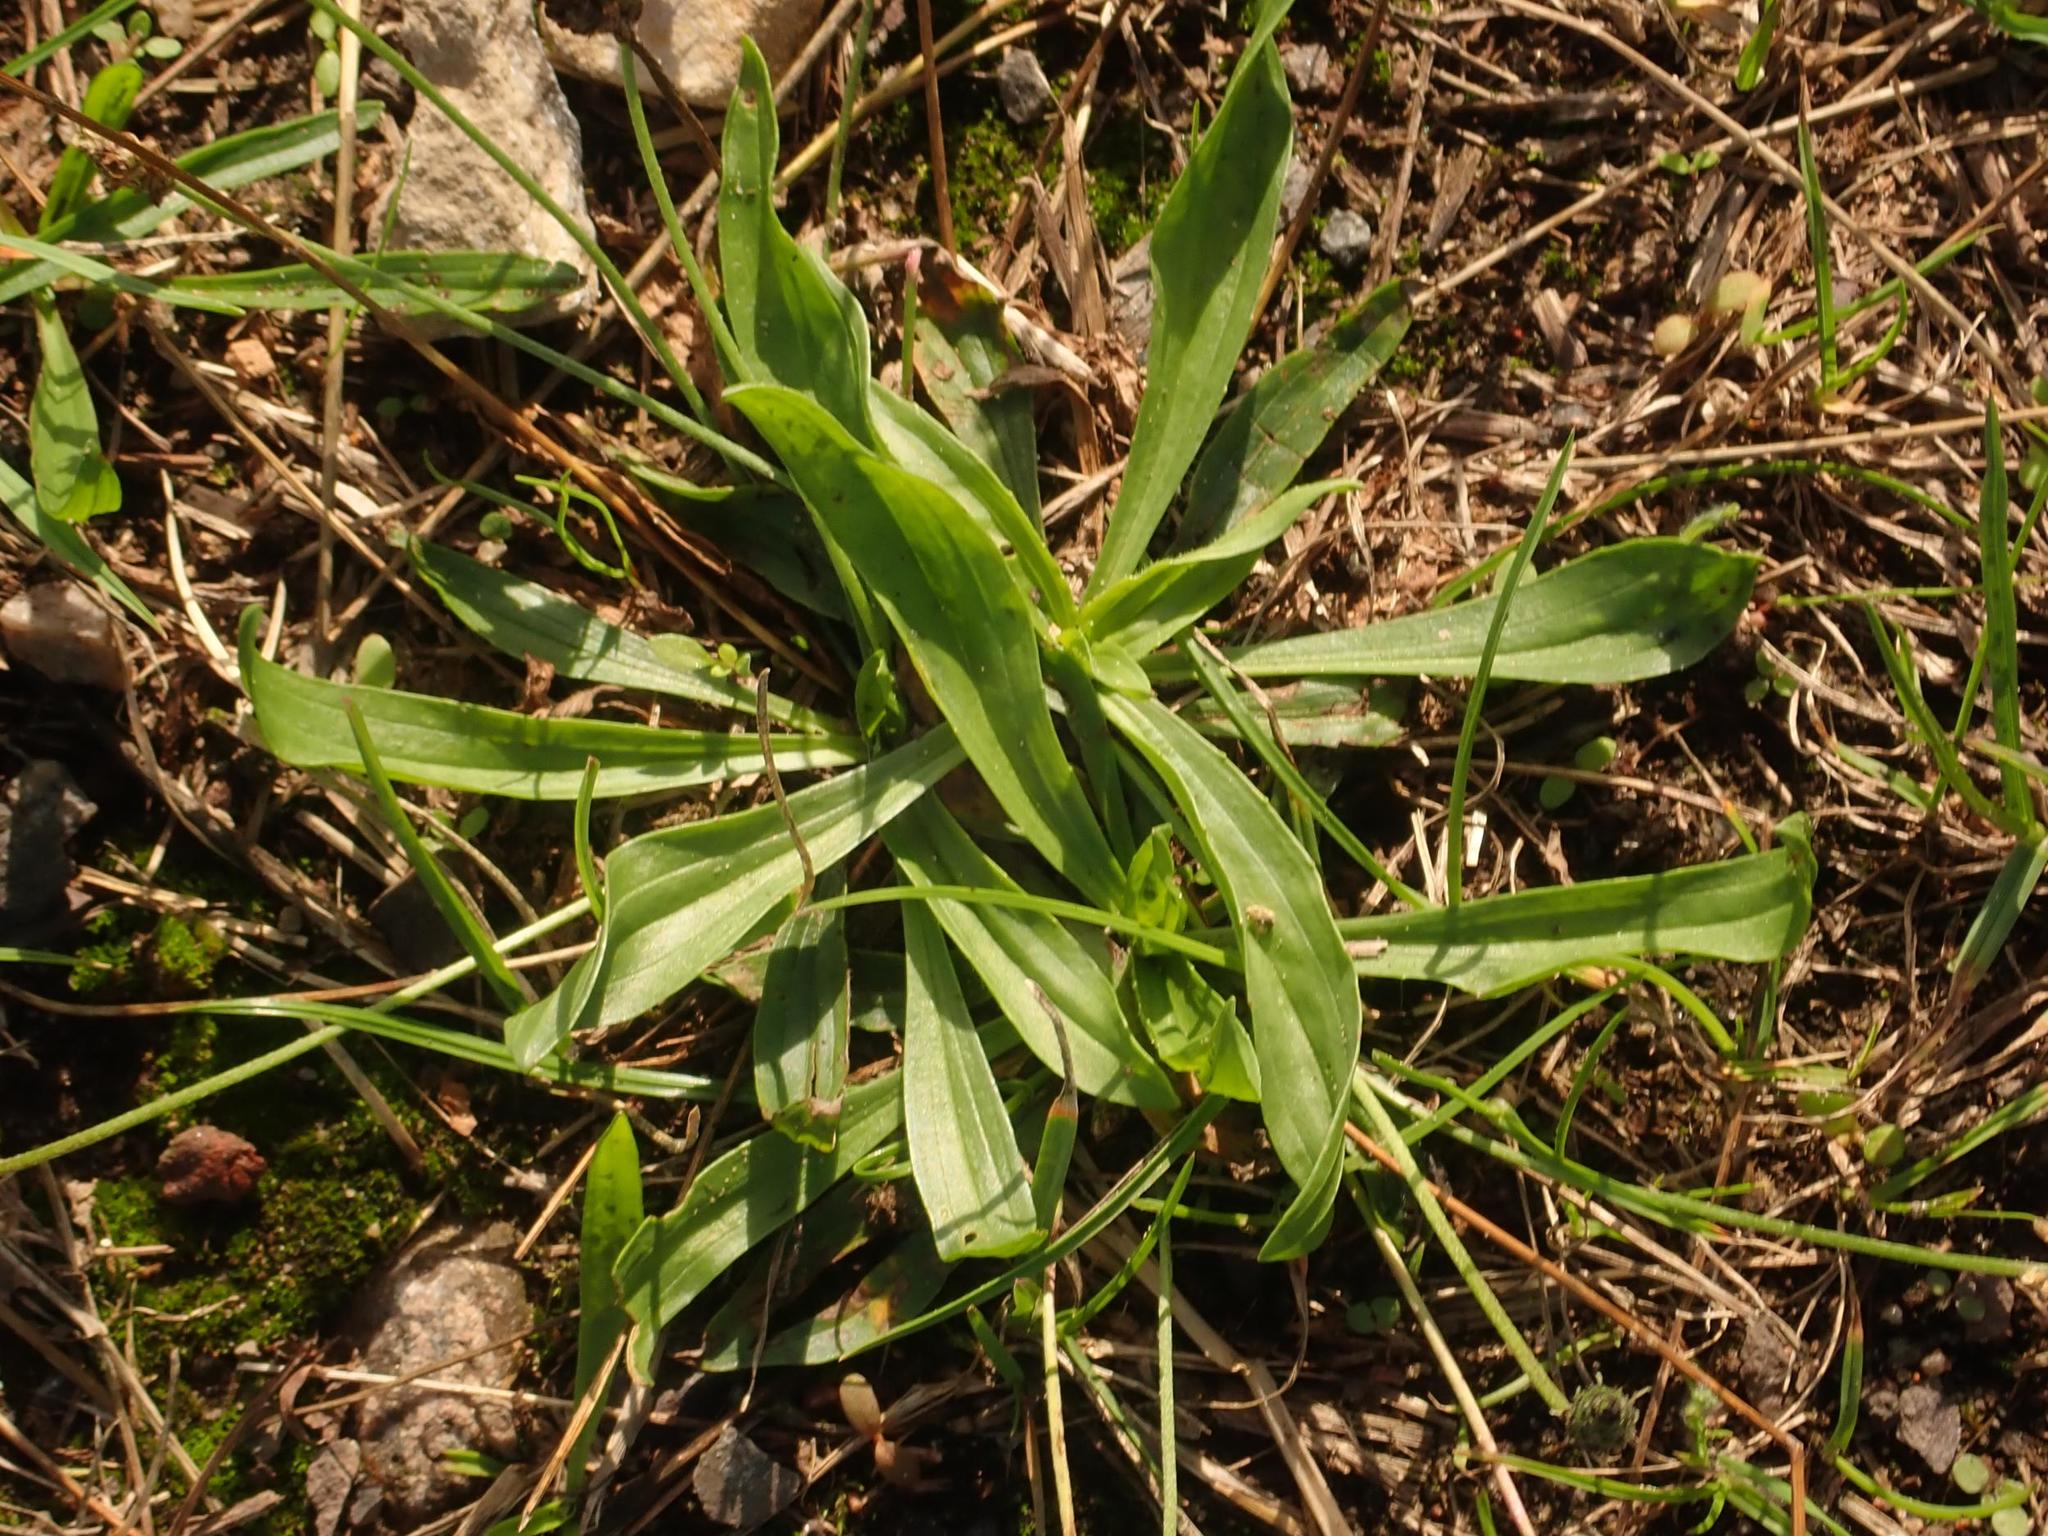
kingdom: Plantae
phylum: Tracheophyta
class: Magnoliopsida
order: Lamiales
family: Plantaginaceae
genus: Plantago
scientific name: Plantago lanceolata
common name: Ribwort plantain
